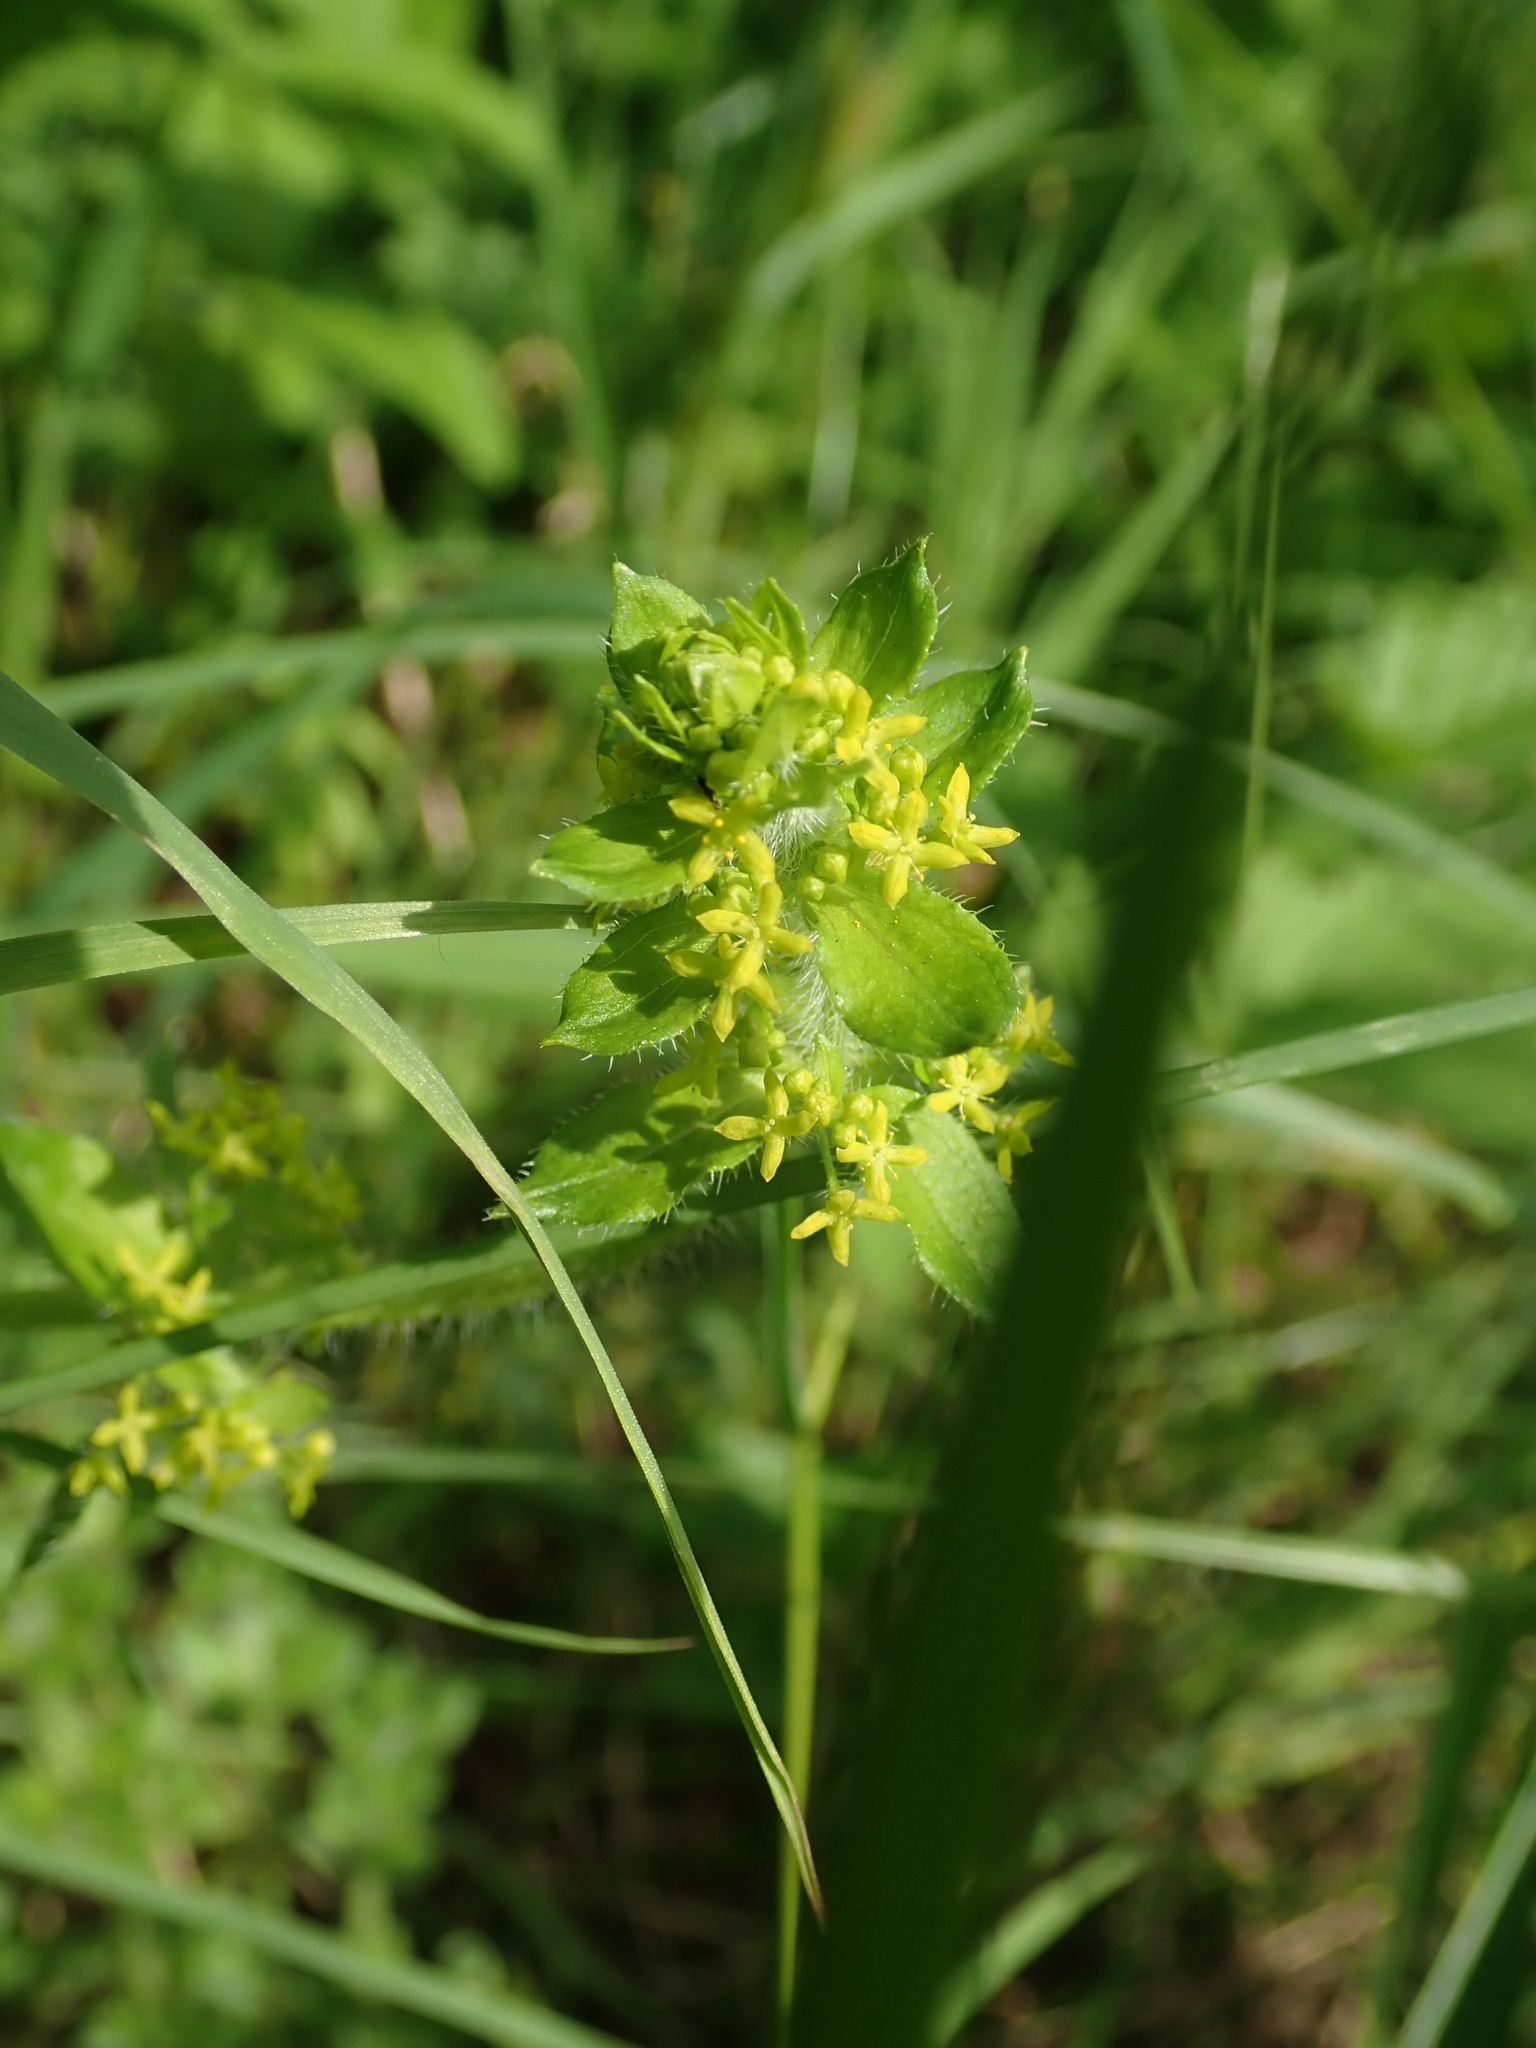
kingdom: Plantae
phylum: Tracheophyta
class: Magnoliopsida
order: Gentianales
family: Rubiaceae
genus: Cruciata
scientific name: Cruciata laevipes
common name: Crosswort
